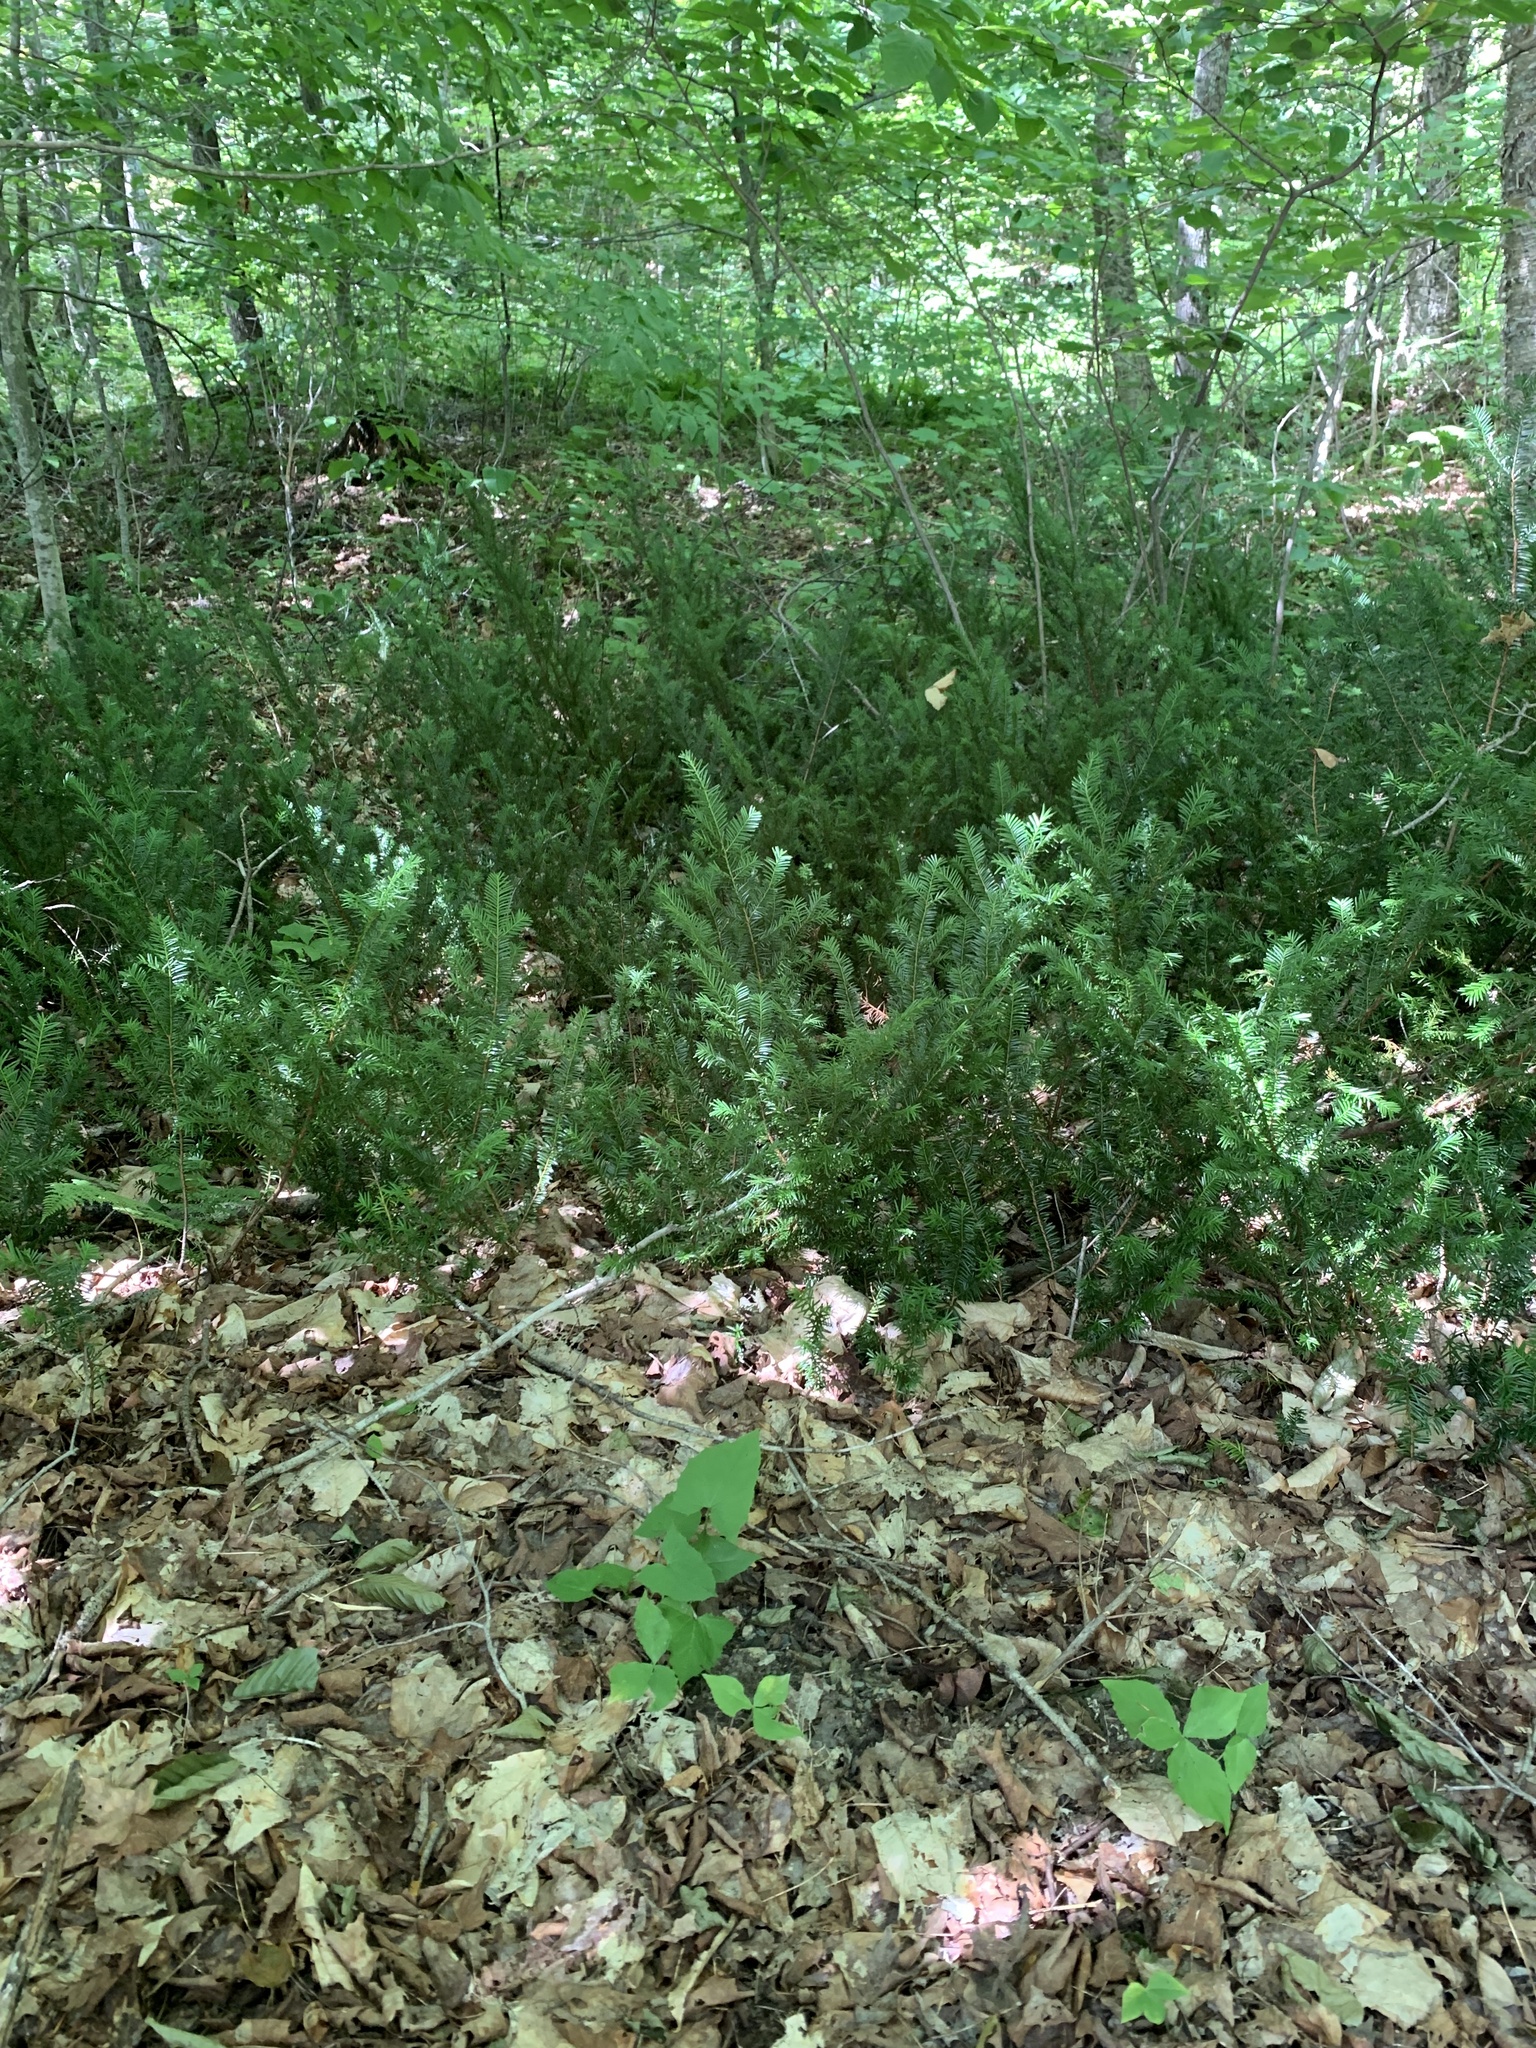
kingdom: Plantae
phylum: Tracheophyta
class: Pinopsida
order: Pinales
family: Taxaceae
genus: Taxus
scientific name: Taxus canadensis
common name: American yew
